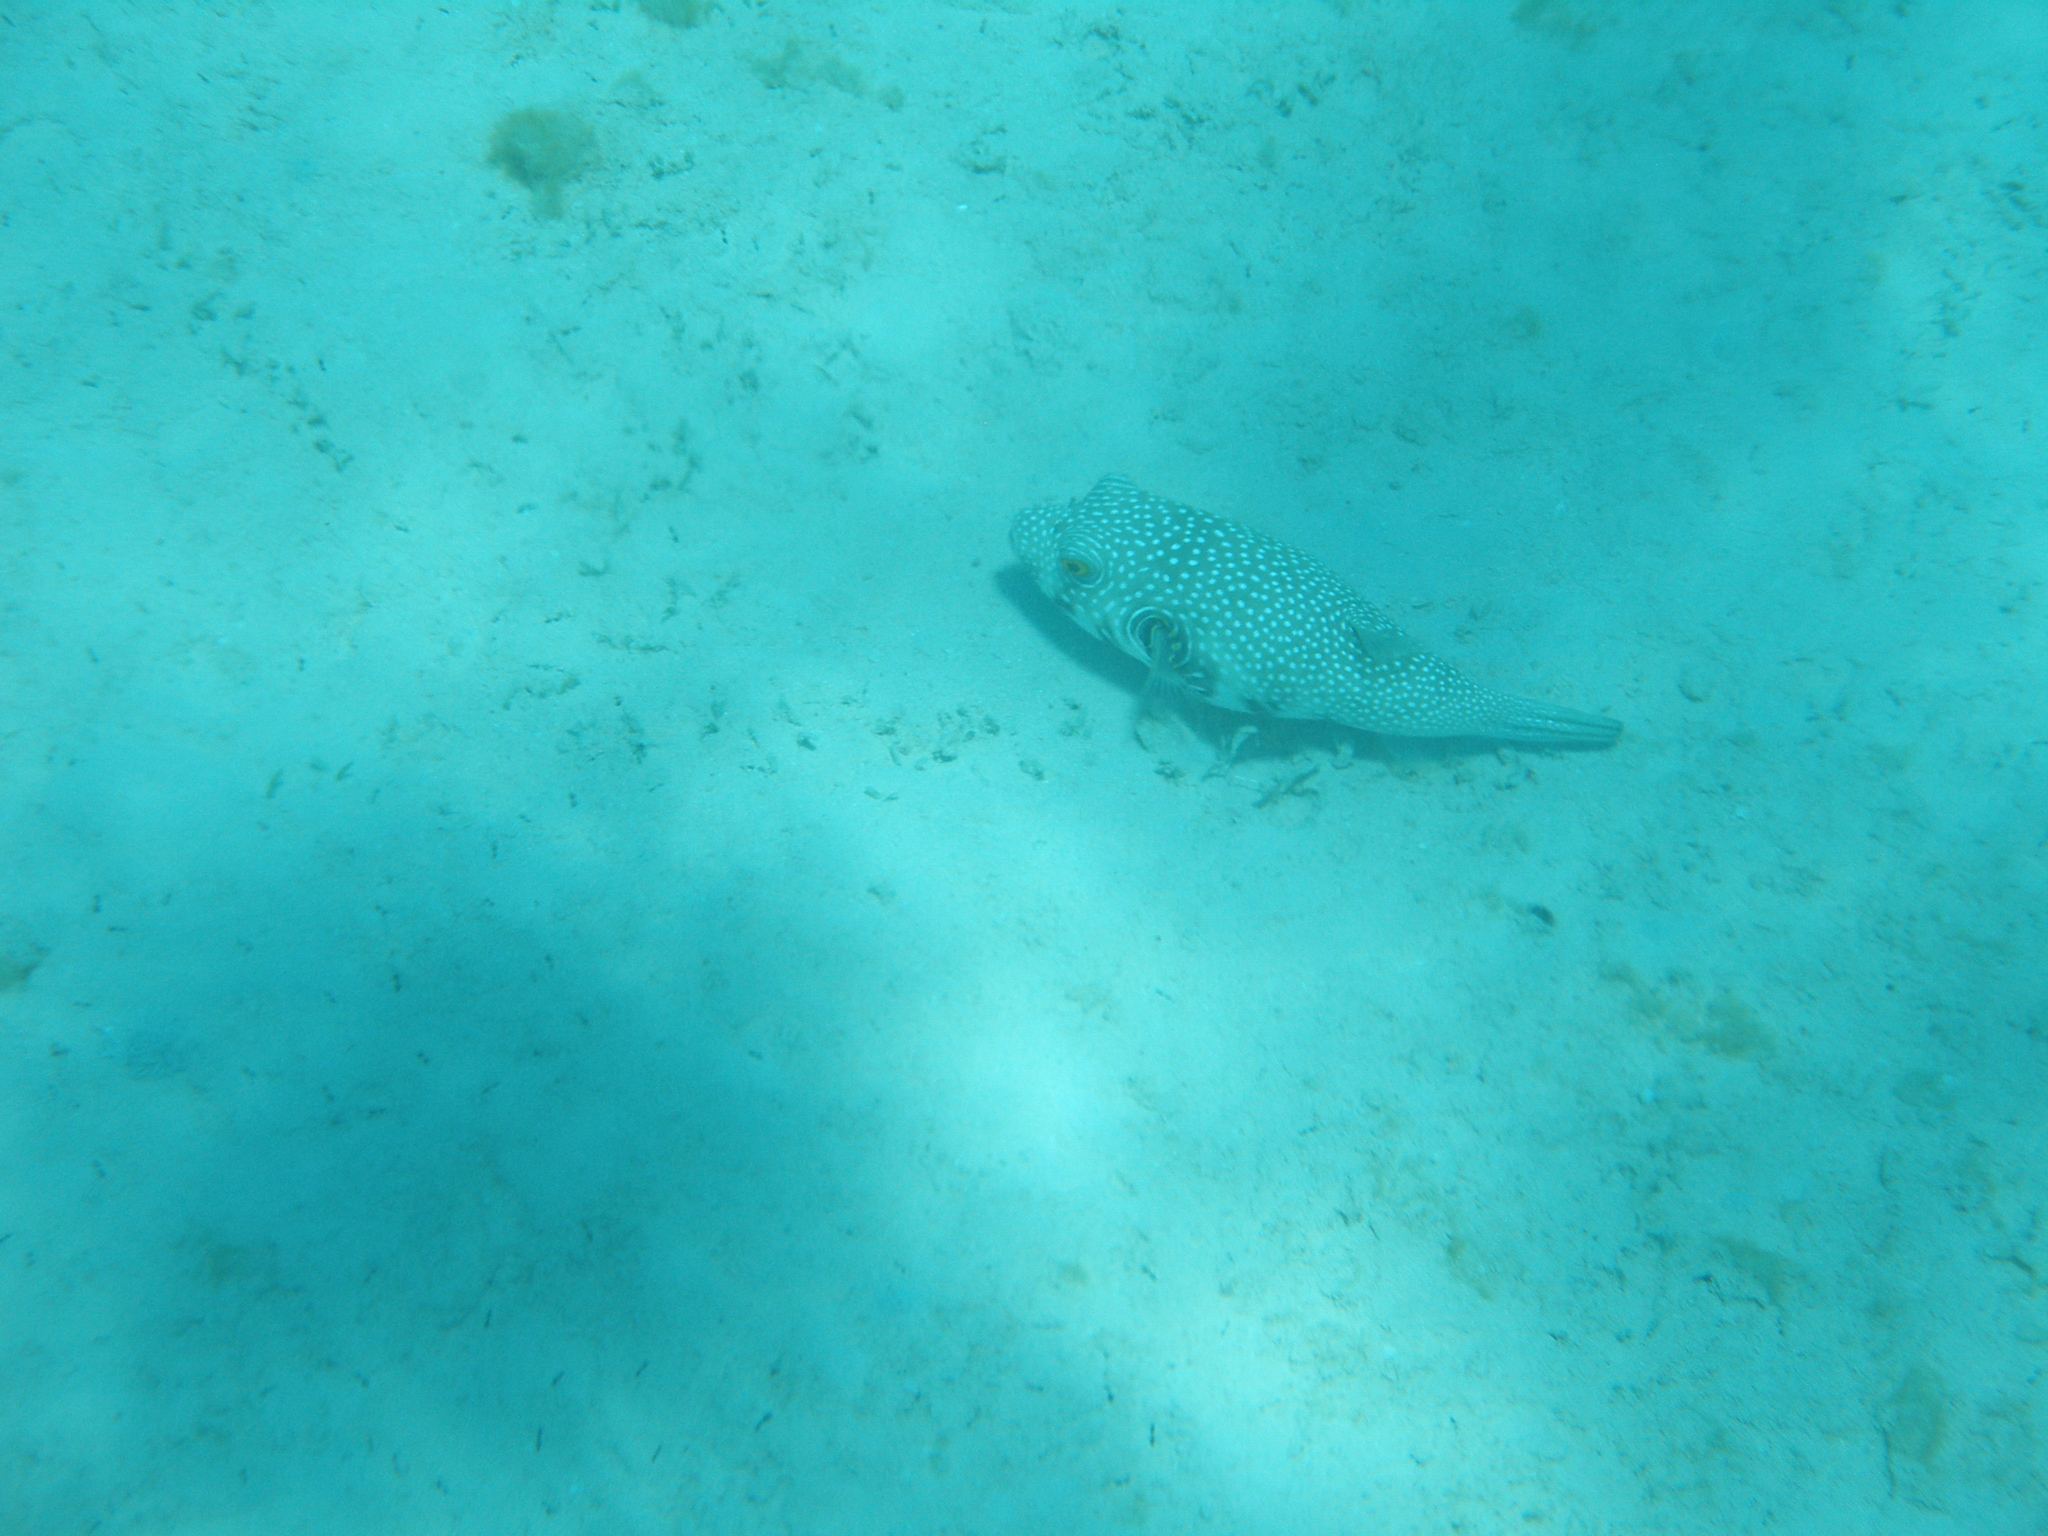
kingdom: Animalia
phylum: Chordata
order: Tetraodontiformes
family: Tetraodontidae
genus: Arothron
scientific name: Arothron hispidus
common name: Stripebelly puffer
